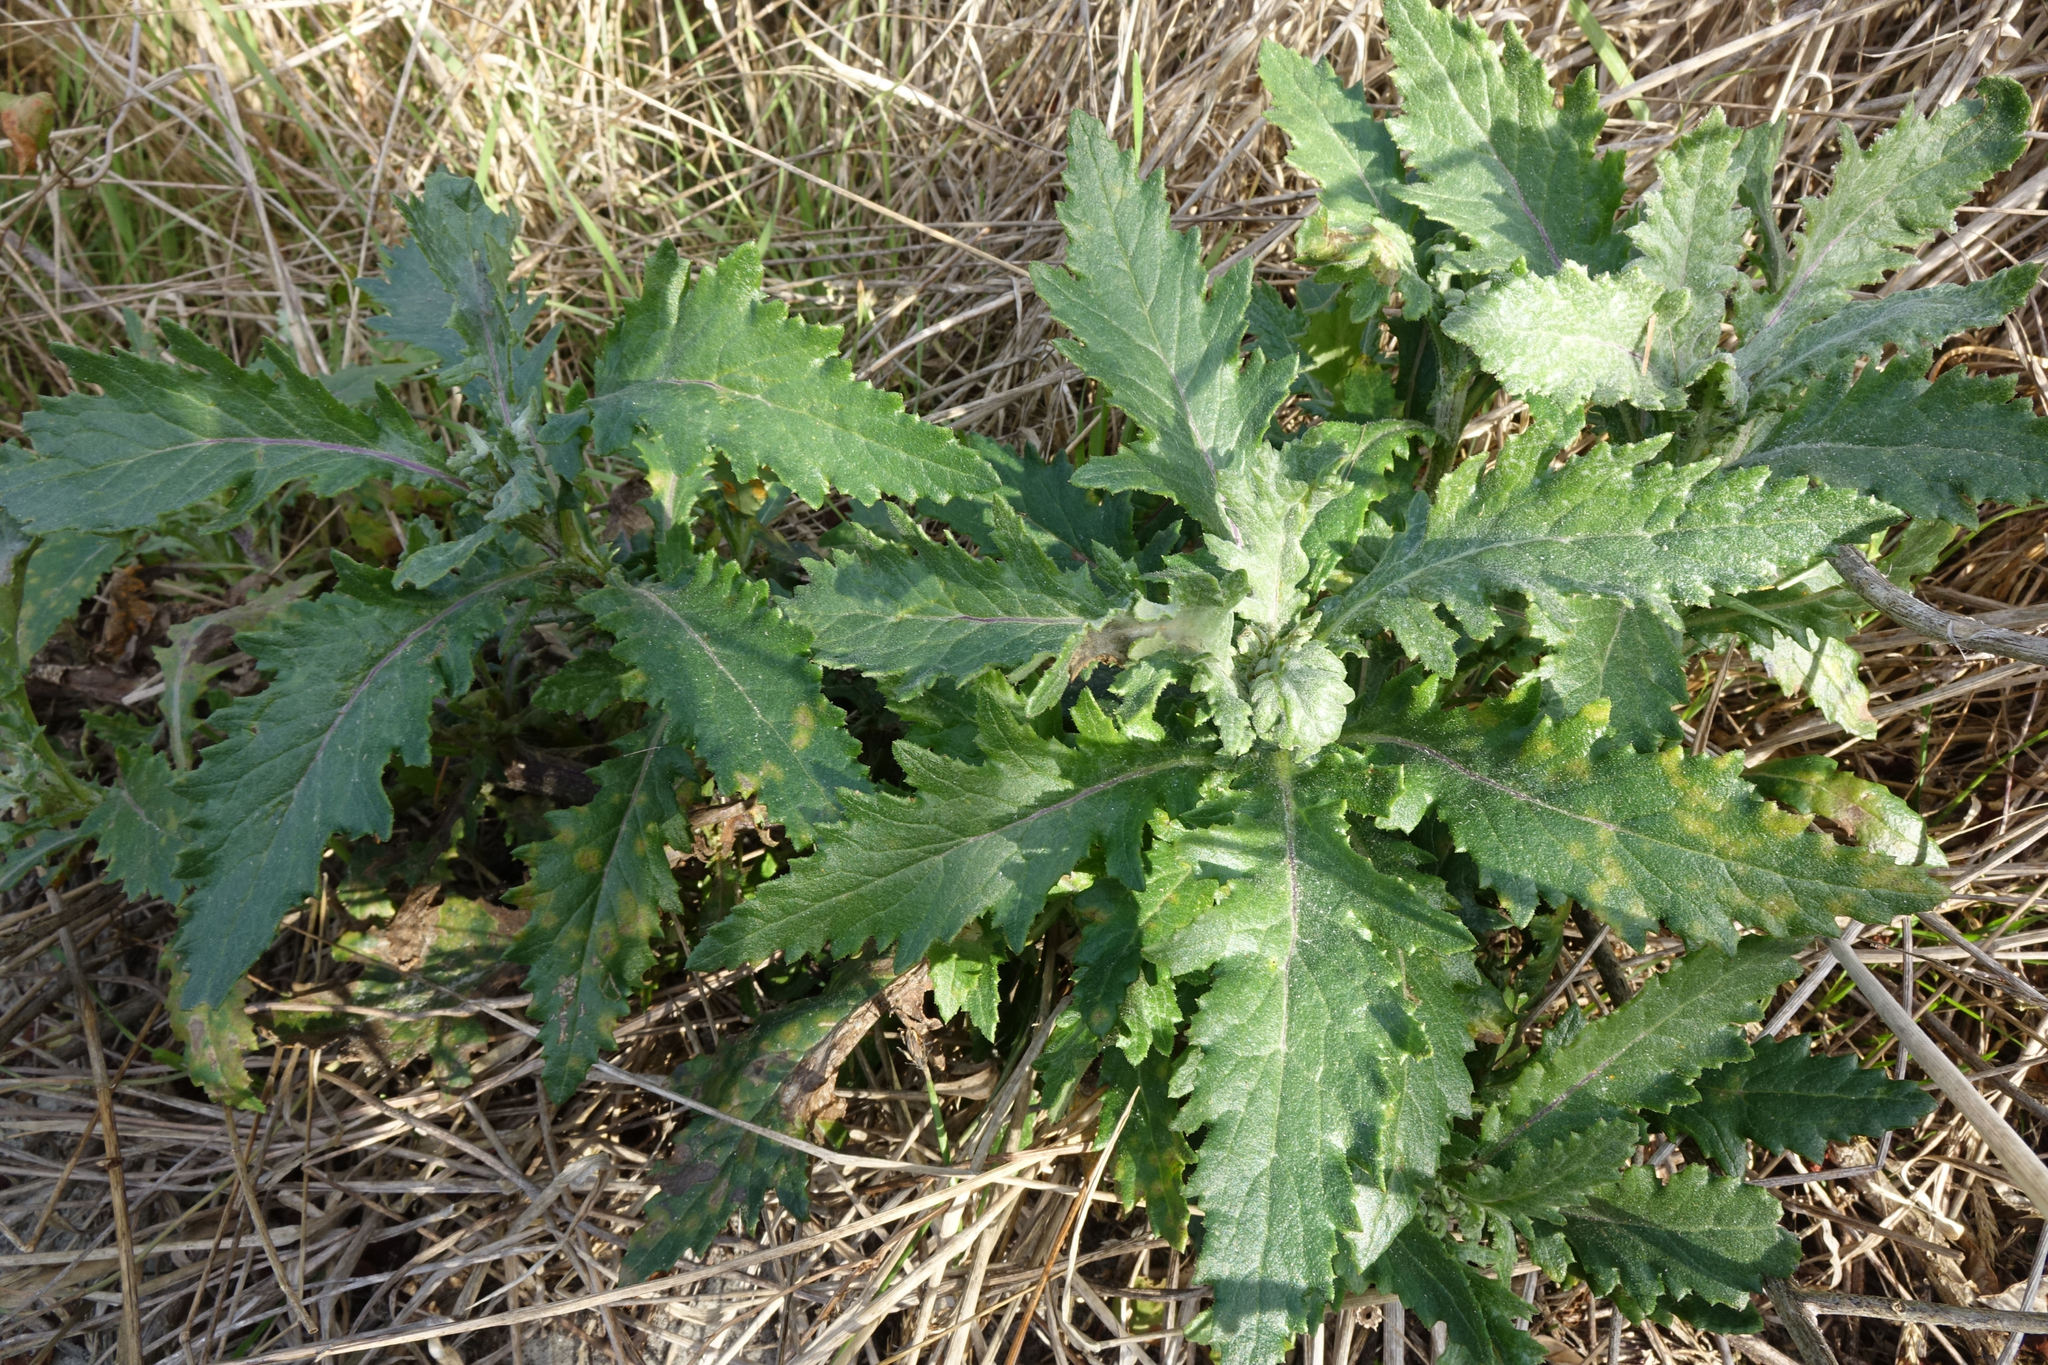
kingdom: Plantae
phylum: Tracheophyta
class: Magnoliopsida
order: Asterales
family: Asteraceae
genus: Senecio
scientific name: Senecio biserratus
